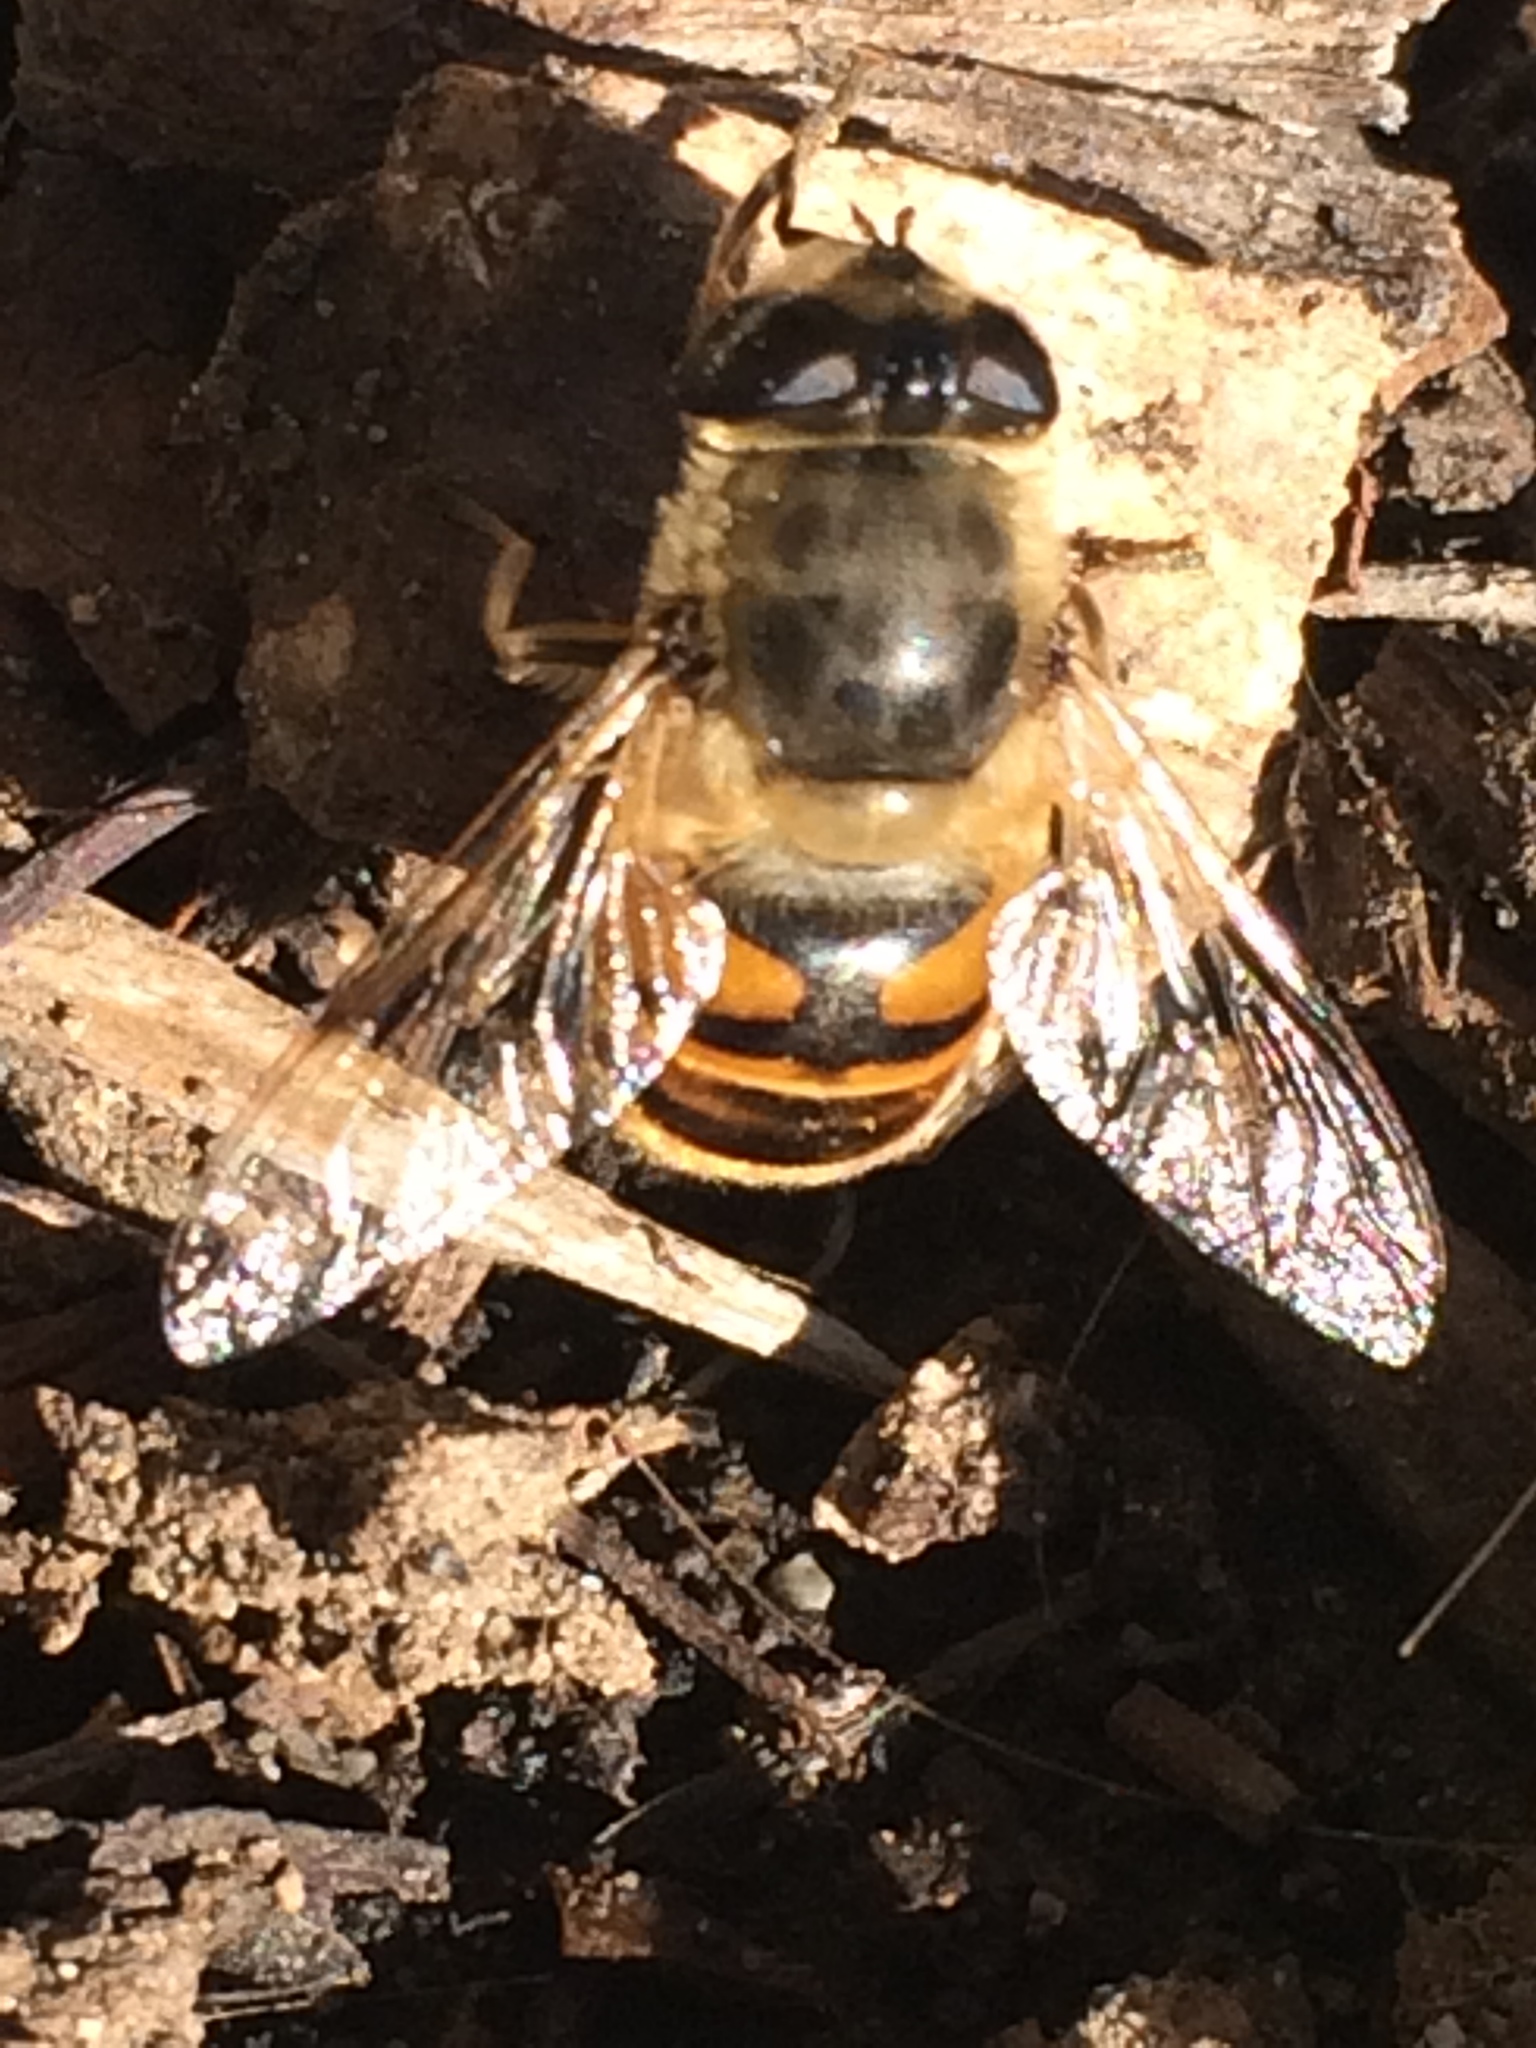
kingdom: Animalia
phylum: Arthropoda
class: Insecta
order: Diptera
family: Syrphidae
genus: Eristalis
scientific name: Eristalis tenax
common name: Drone fly
